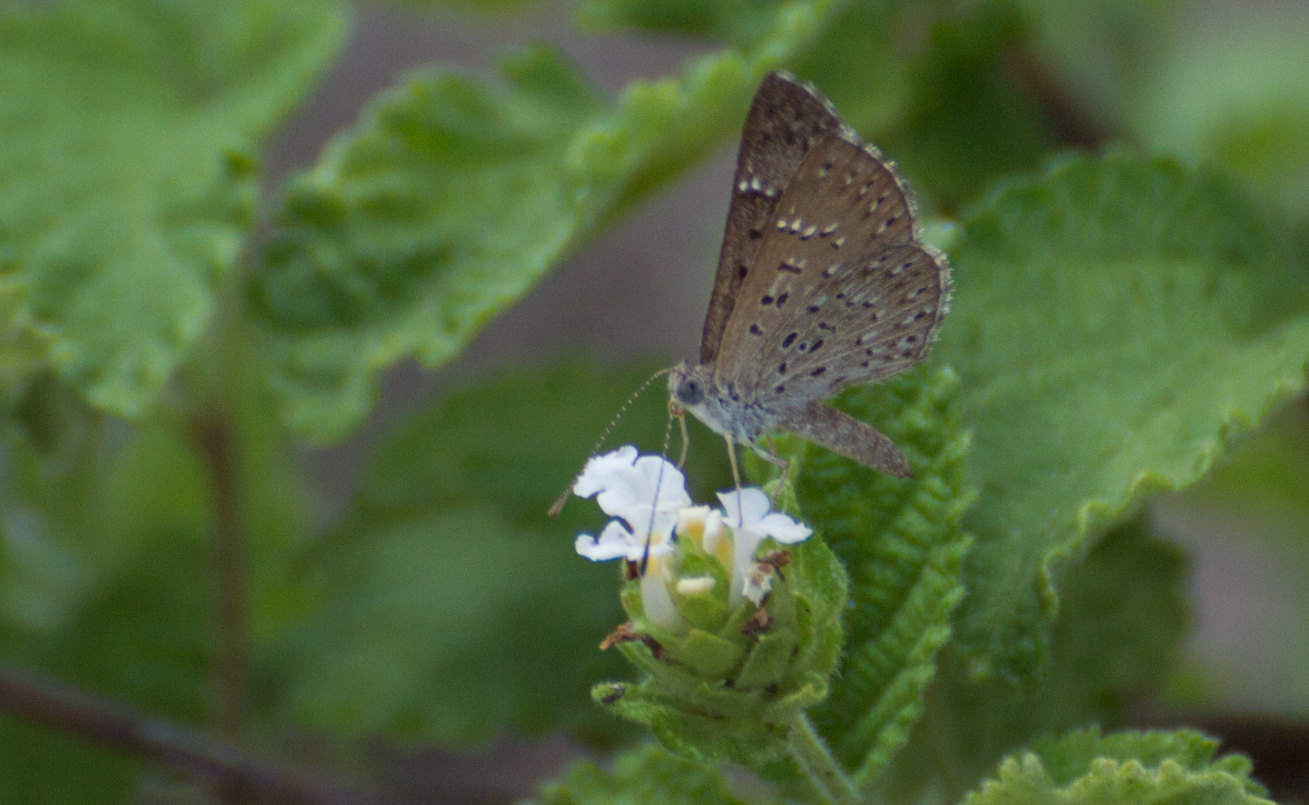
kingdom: Animalia
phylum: Arthropoda
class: Insecta
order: Lepidoptera
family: Riodinidae
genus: Zabuella
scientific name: Zabuella tenellus
